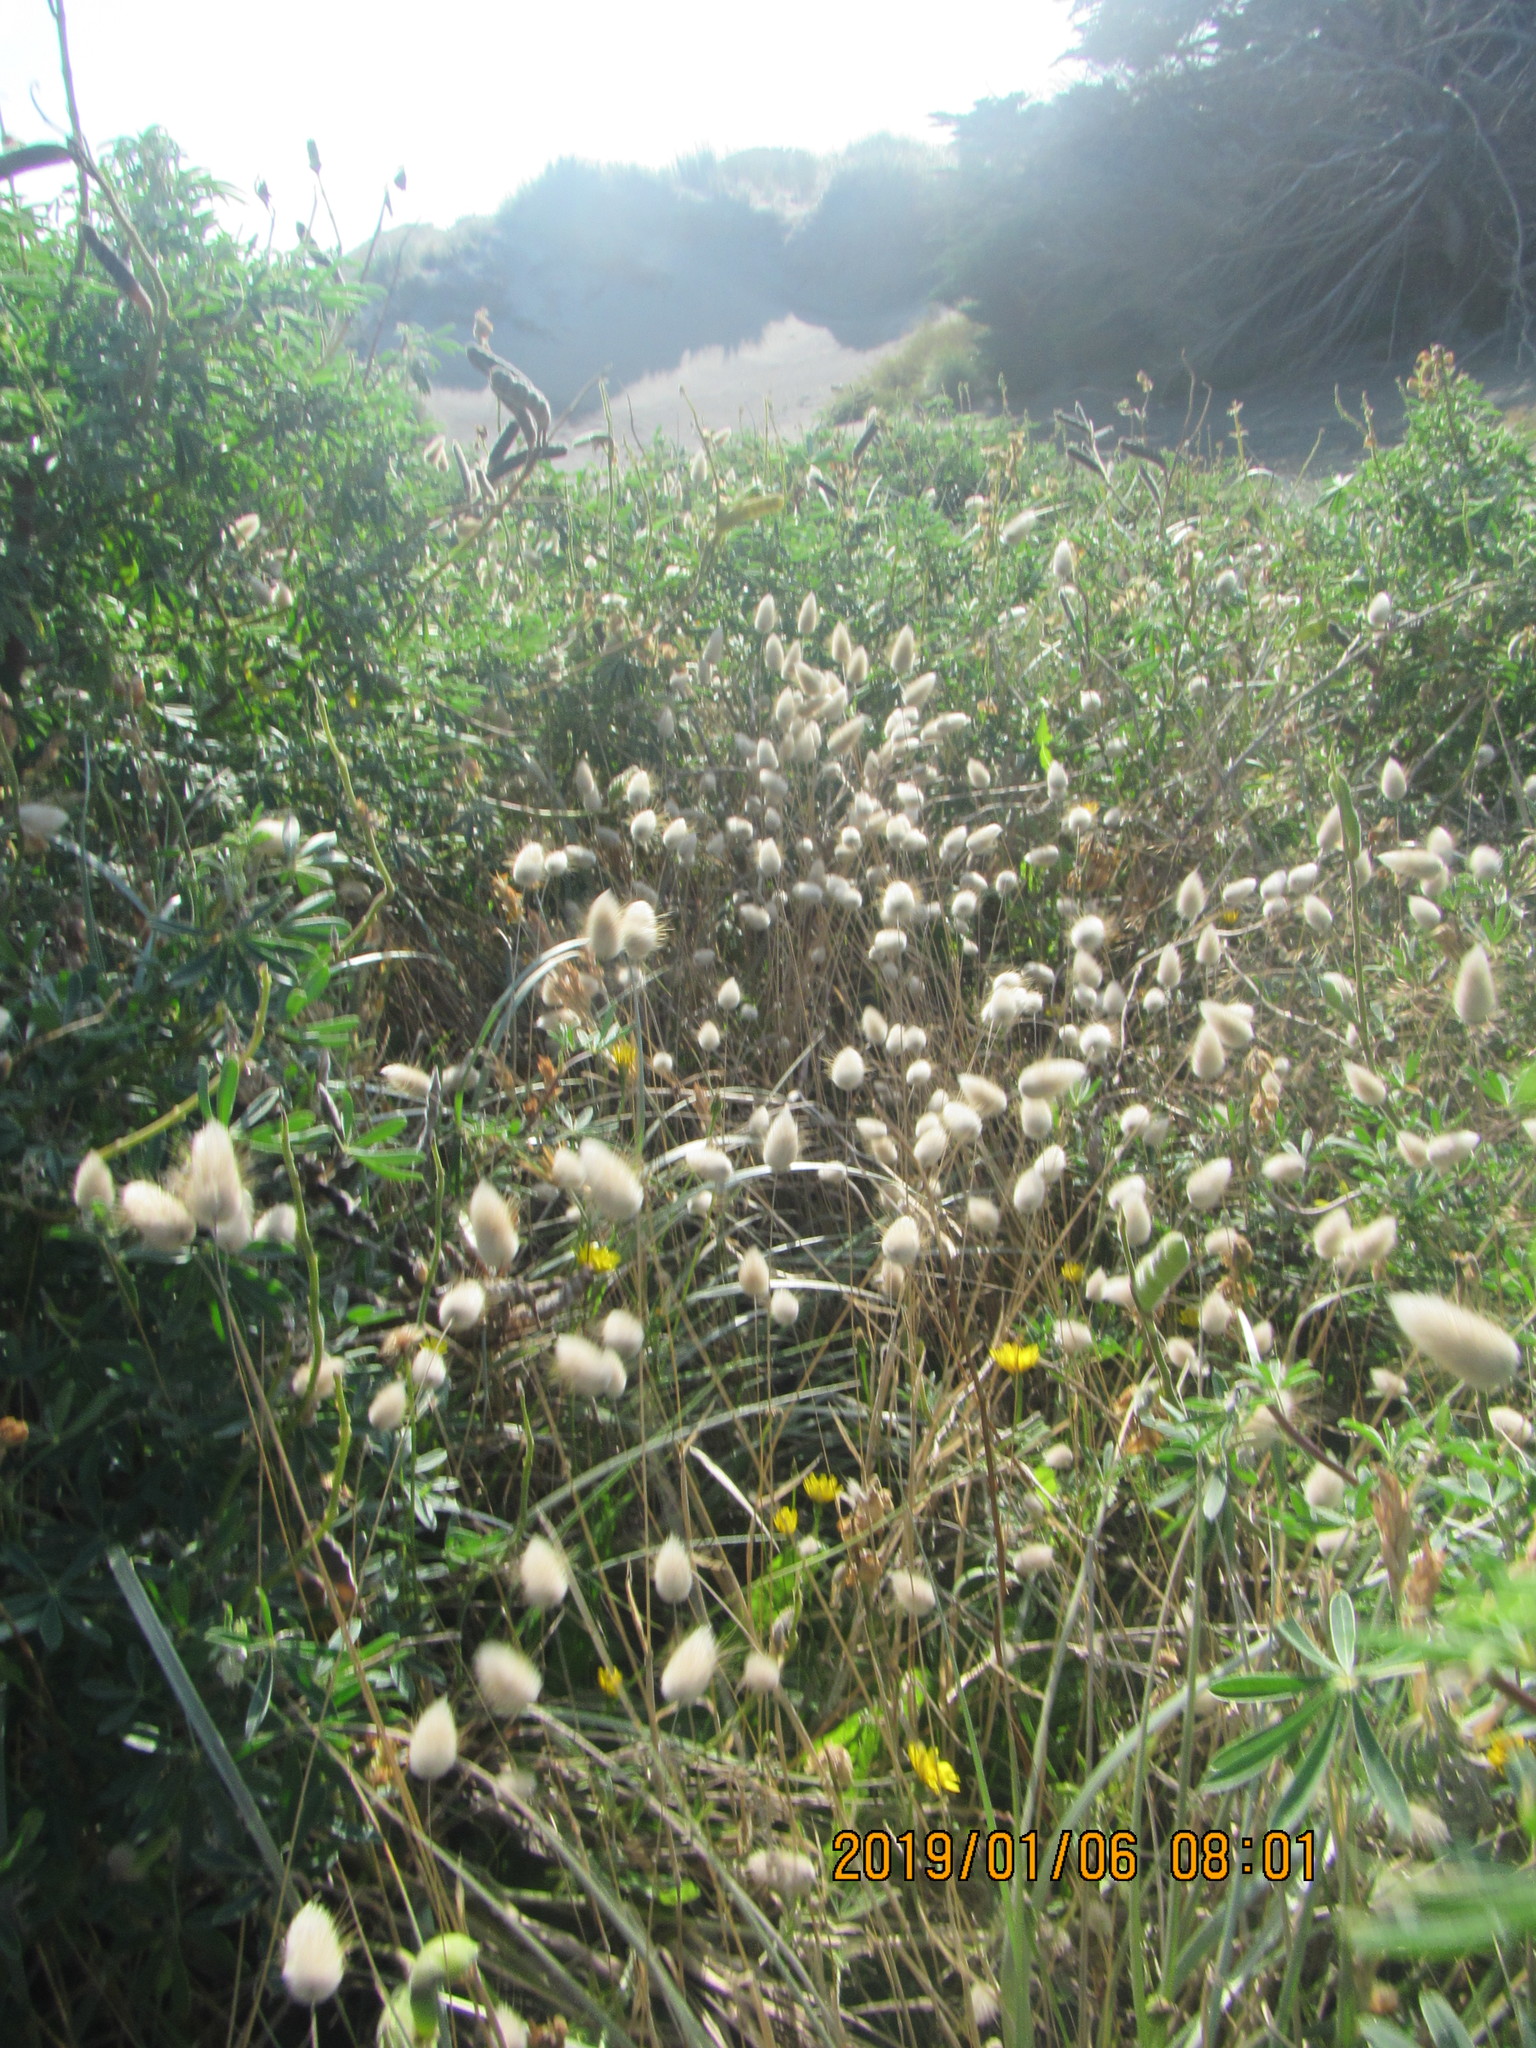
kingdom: Plantae
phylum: Tracheophyta
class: Liliopsida
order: Poales
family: Poaceae
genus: Lagurus
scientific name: Lagurus ovatus
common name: Hare's-tail
